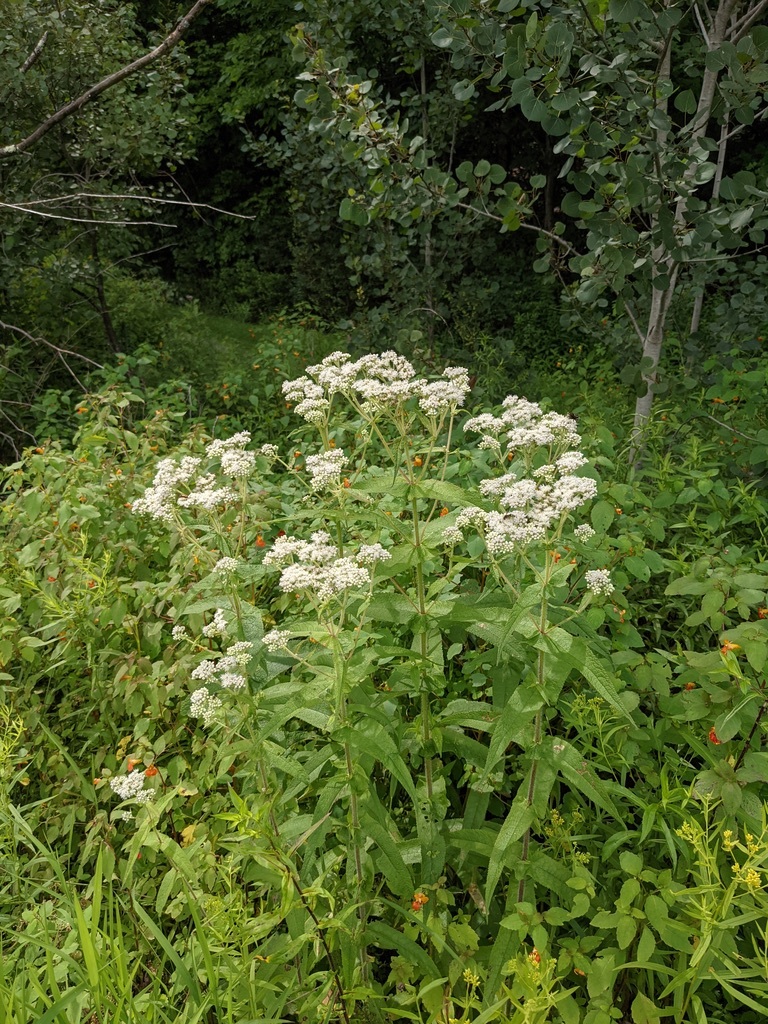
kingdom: Plantae
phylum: Tracheophyta
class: Magnoliopsida
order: Asterales
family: Asteraceae
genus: Eupatorium
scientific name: Eupatorium perfoliatum
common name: Boneset
